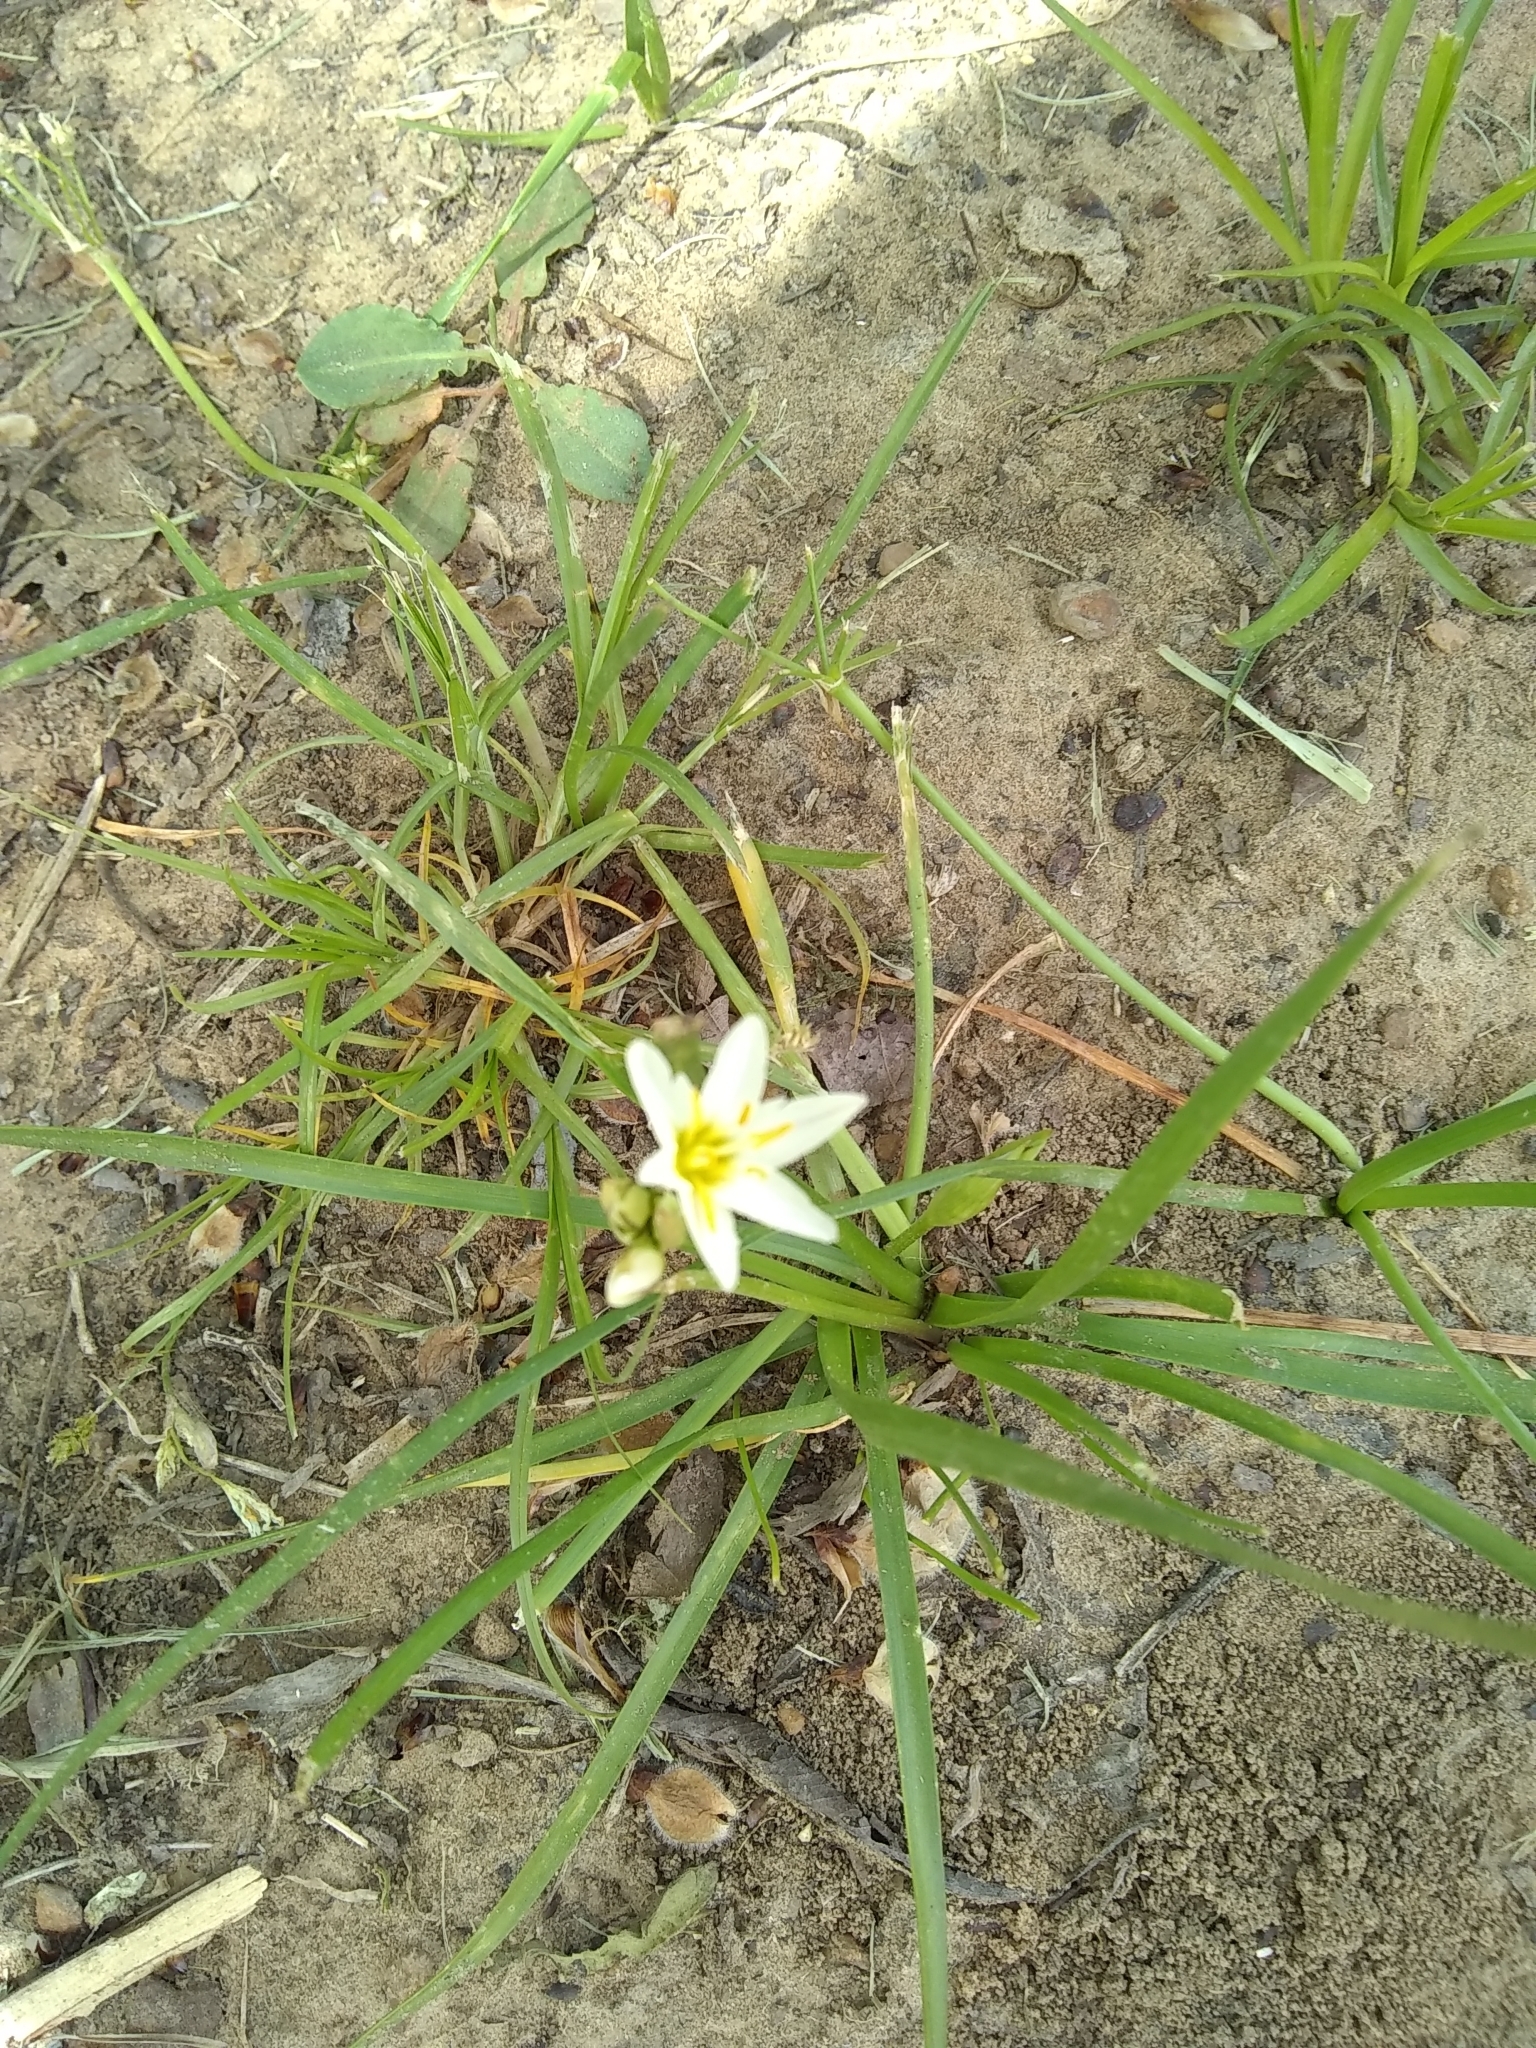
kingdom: Plantae
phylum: Tracheophyta
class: Liliopsida
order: Asparagales
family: Amaryllidaceae
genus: Nothoscordum
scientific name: Nothoscordum bivalve
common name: Crow-poison
